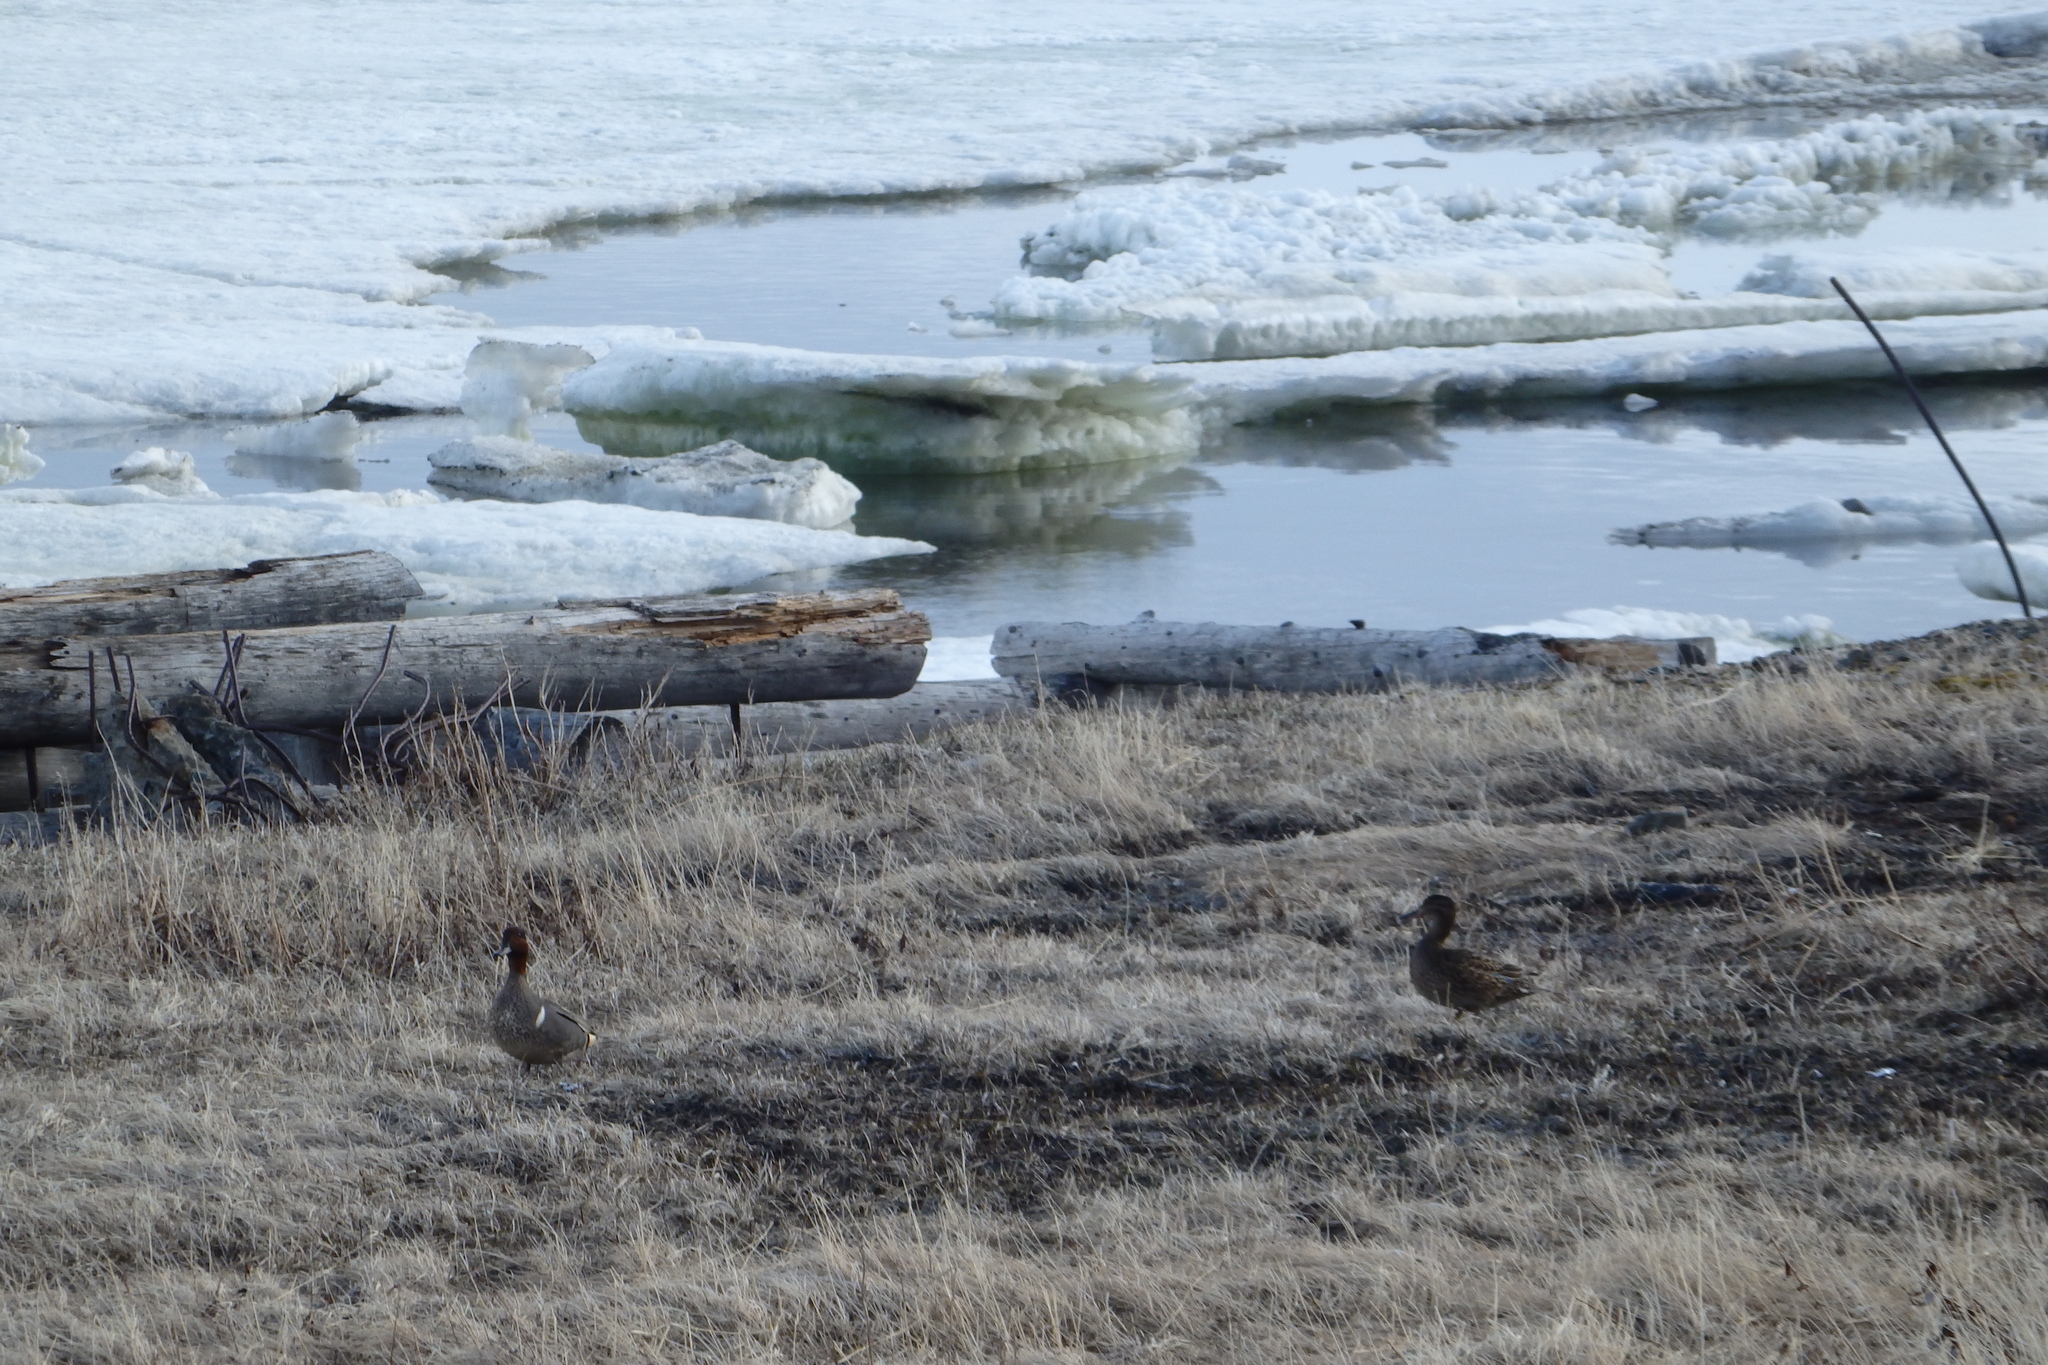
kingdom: Animalia
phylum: Chordata
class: Aves
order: Anseriformes
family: Anatidae
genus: Anas
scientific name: Anas crecca
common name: Eurasian teal
